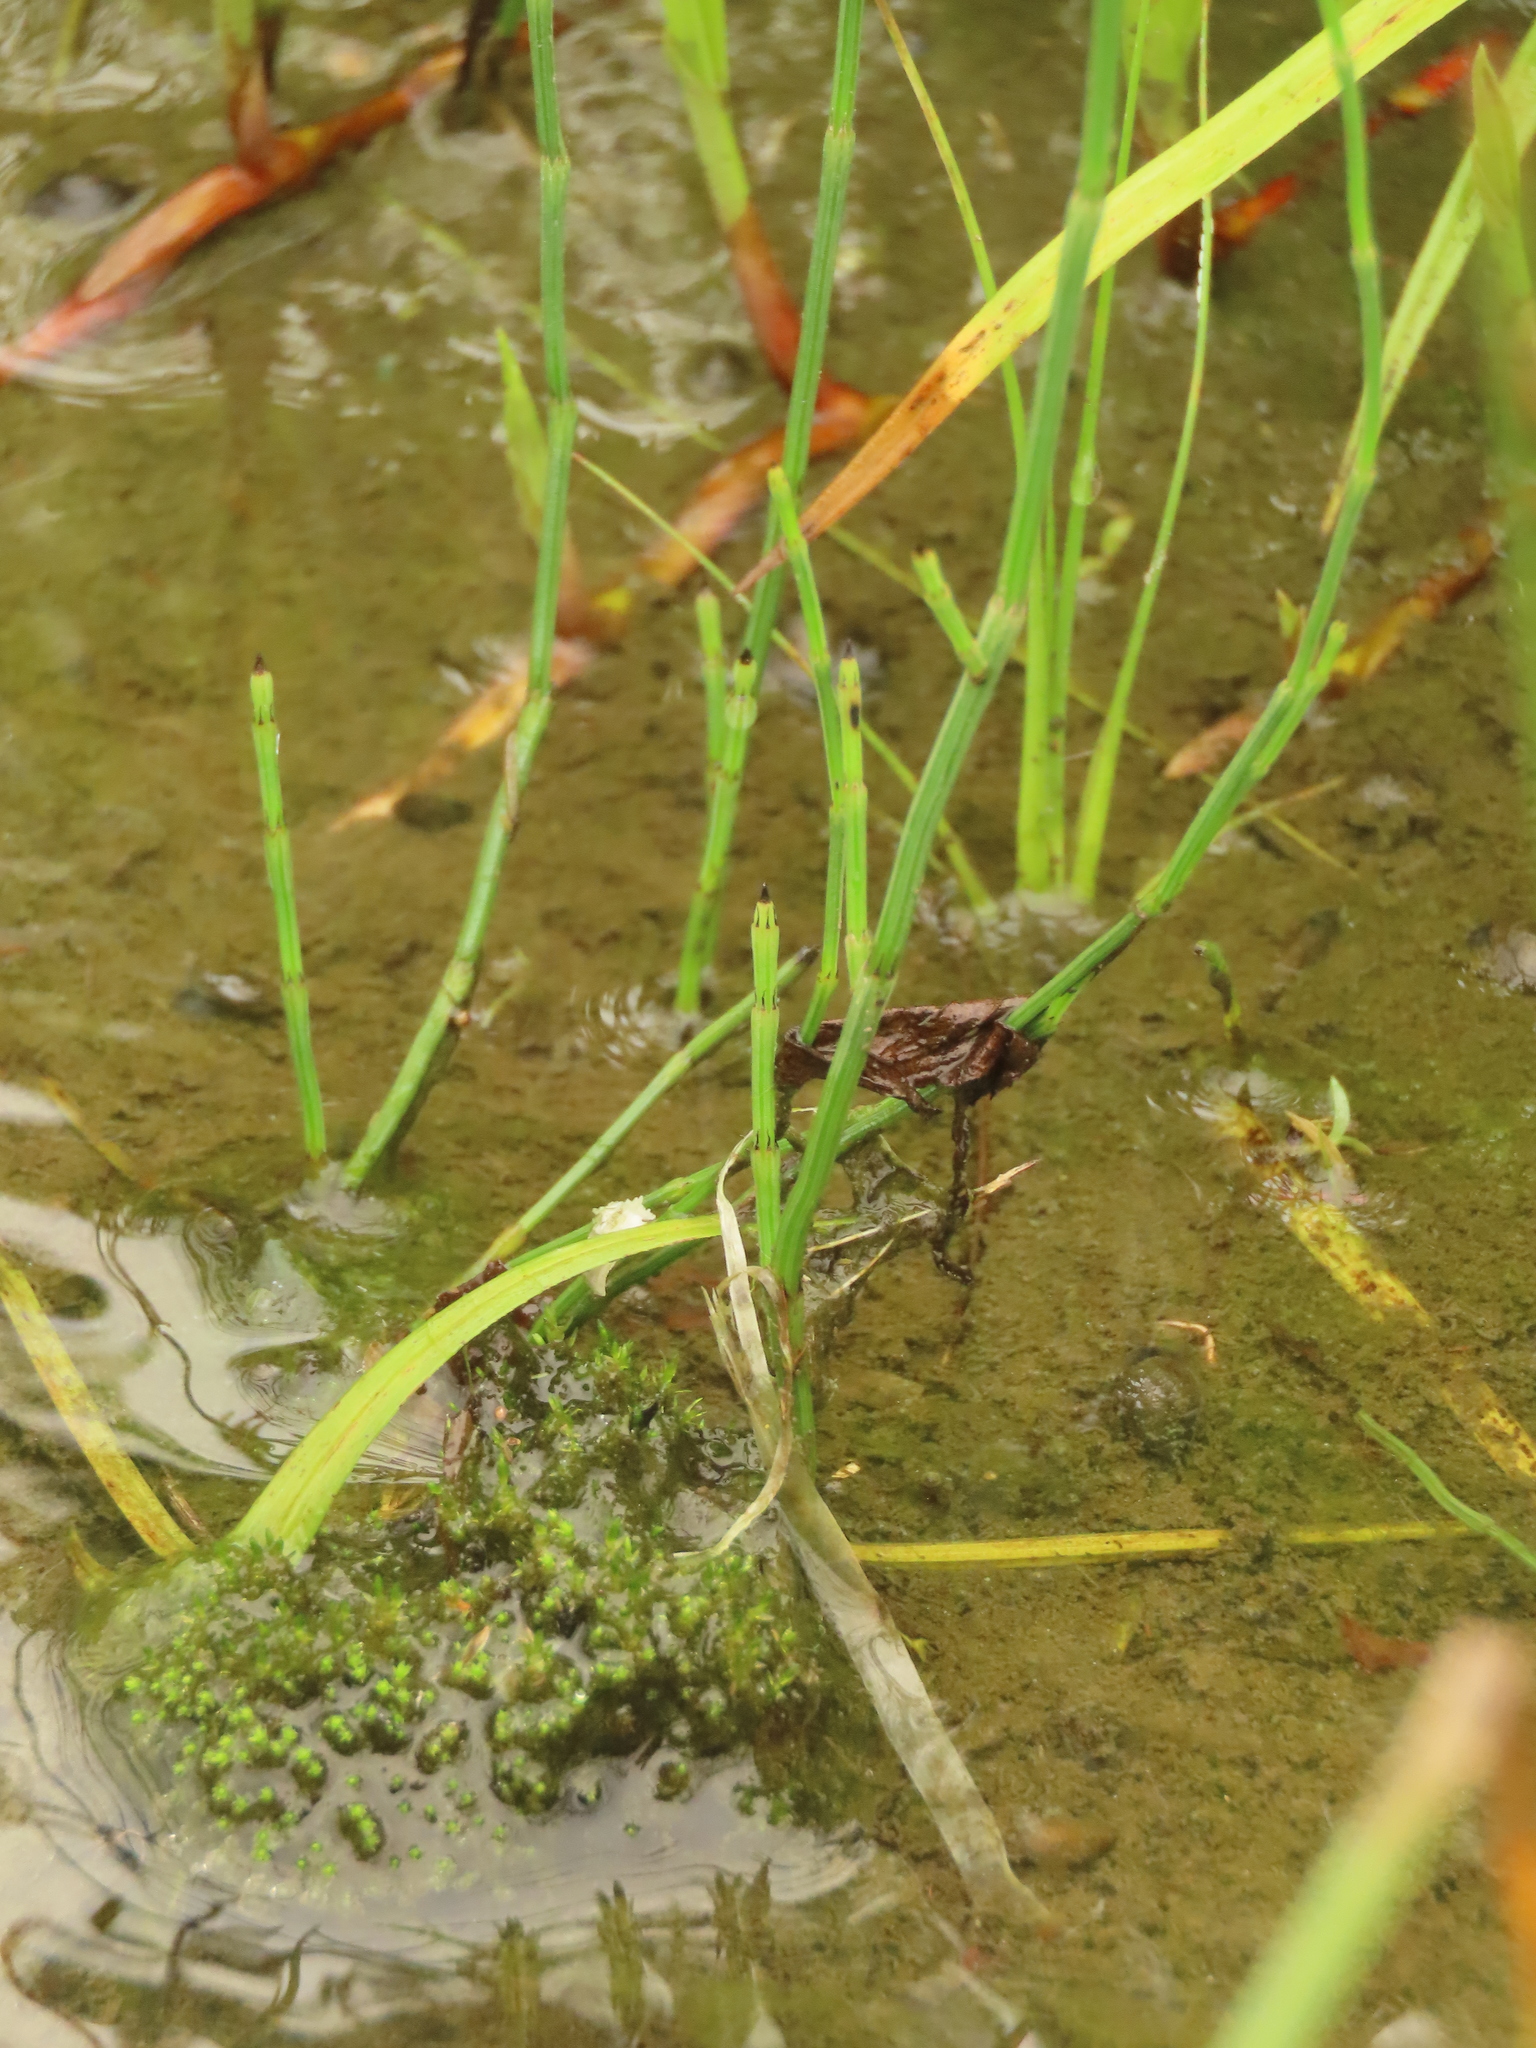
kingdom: Plantae
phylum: Tracheophyta
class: Polypodiopsida
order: Equisetales
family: Equisetaceae
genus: Equisetum
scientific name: Equisetum ramosissimum
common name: Branched horsetail
